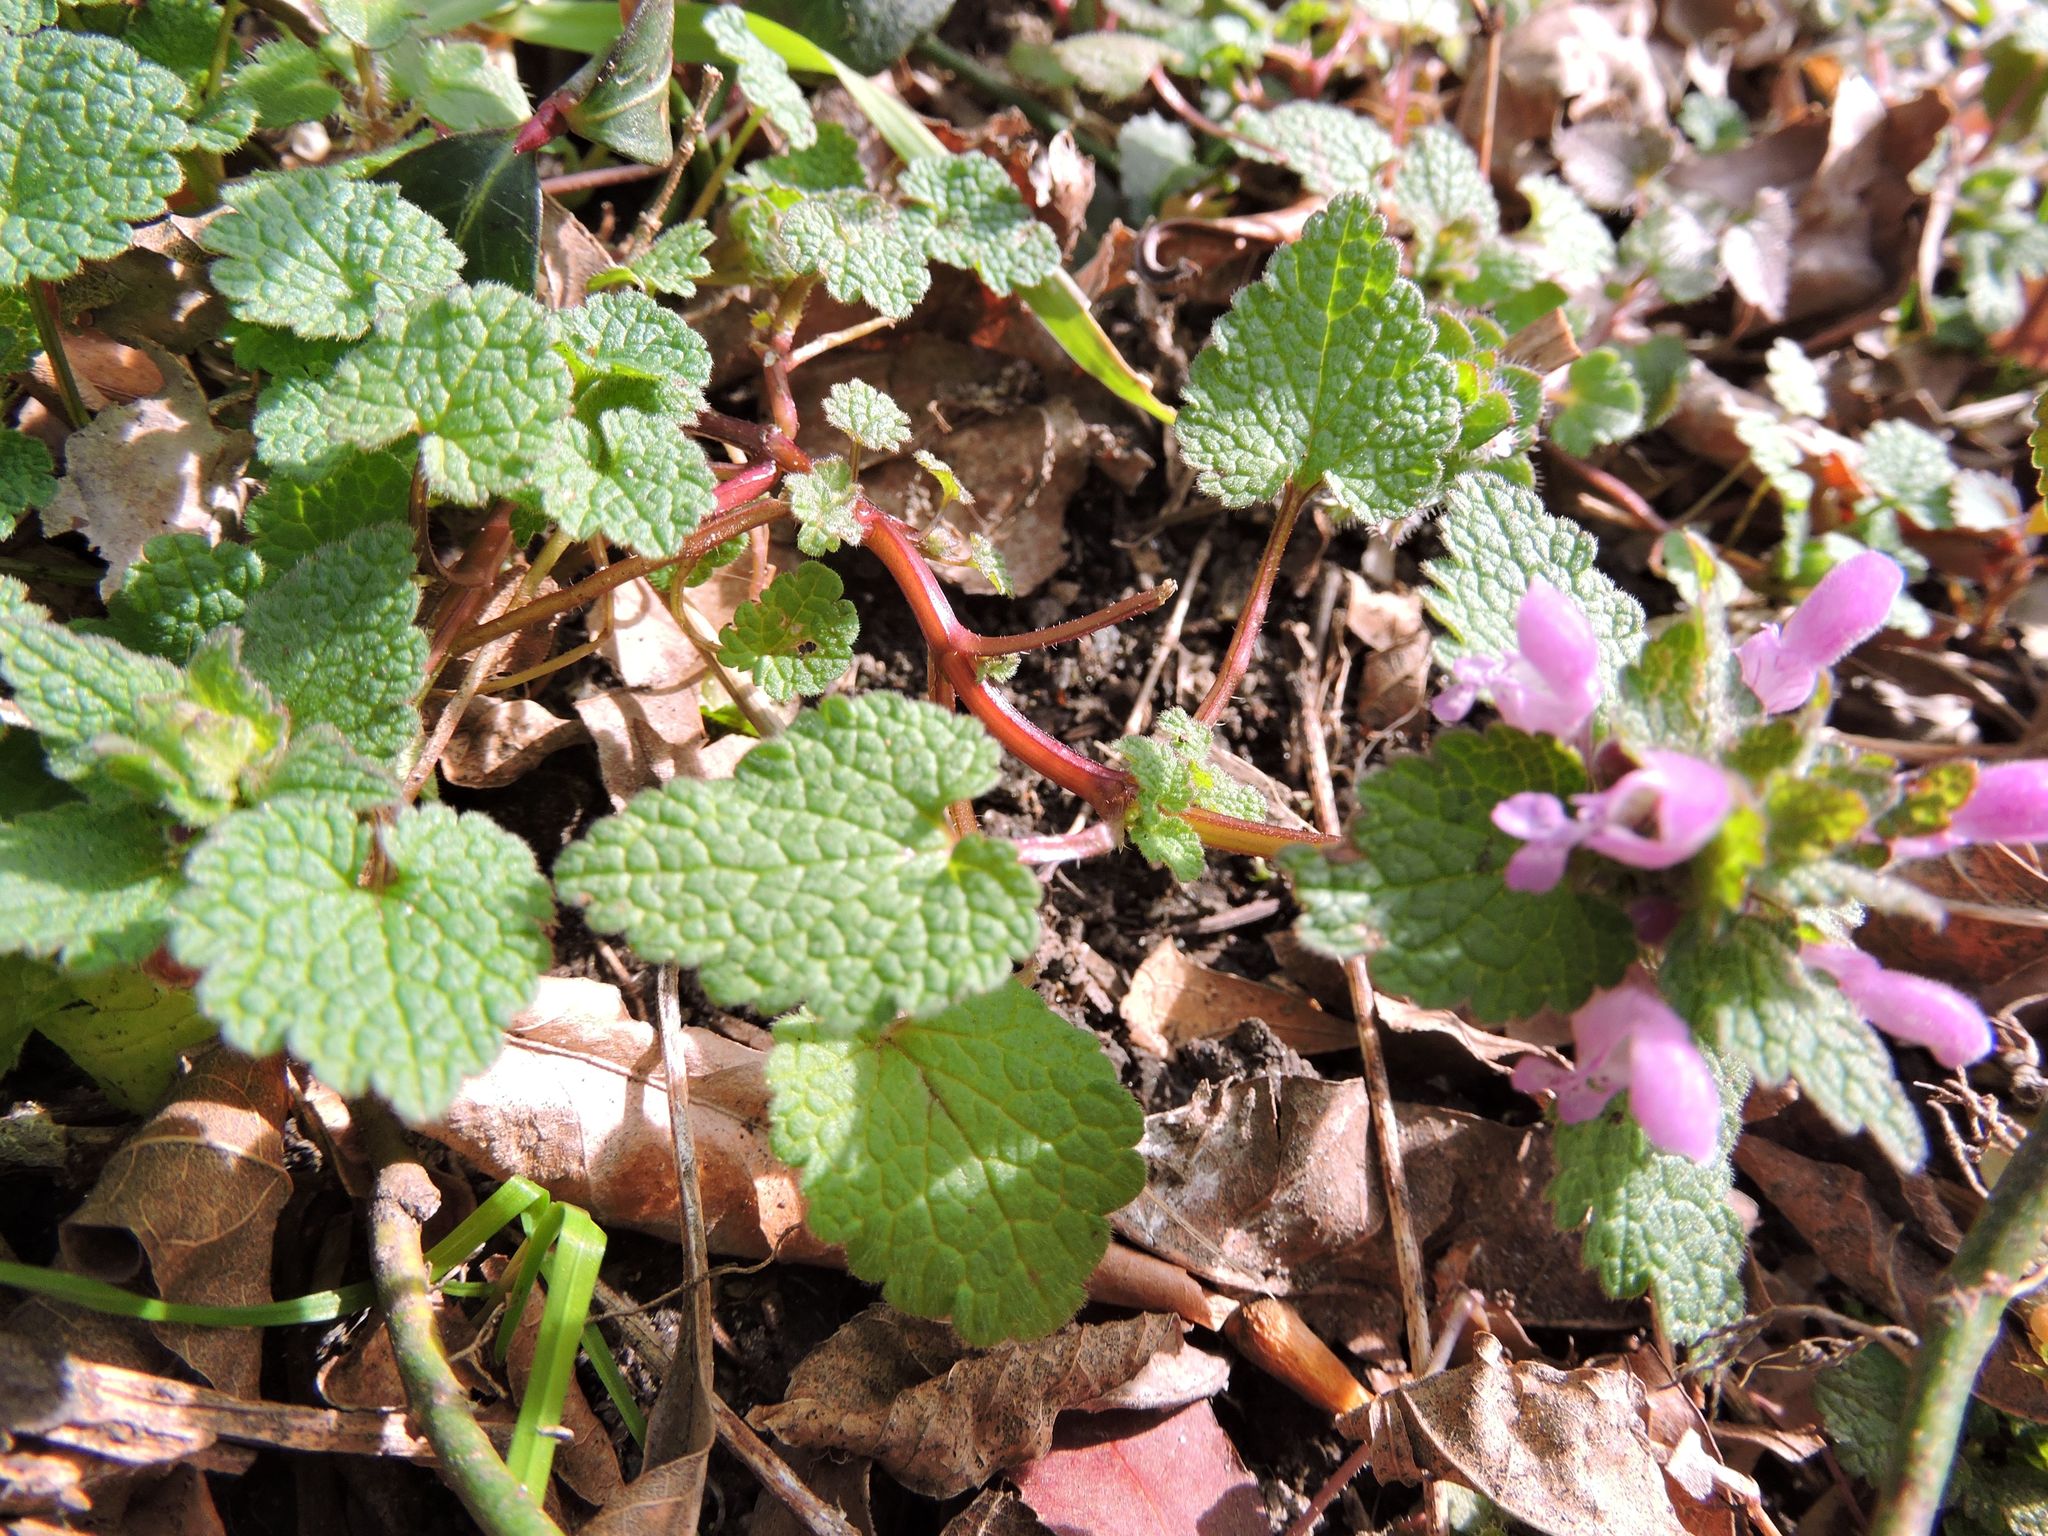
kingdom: Plantae
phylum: Tracheophyta
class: Magnoliopsida
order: Lamiales
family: Lamiaceae
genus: Lamium
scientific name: Lamium purpureum
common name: Red dead-nettle
